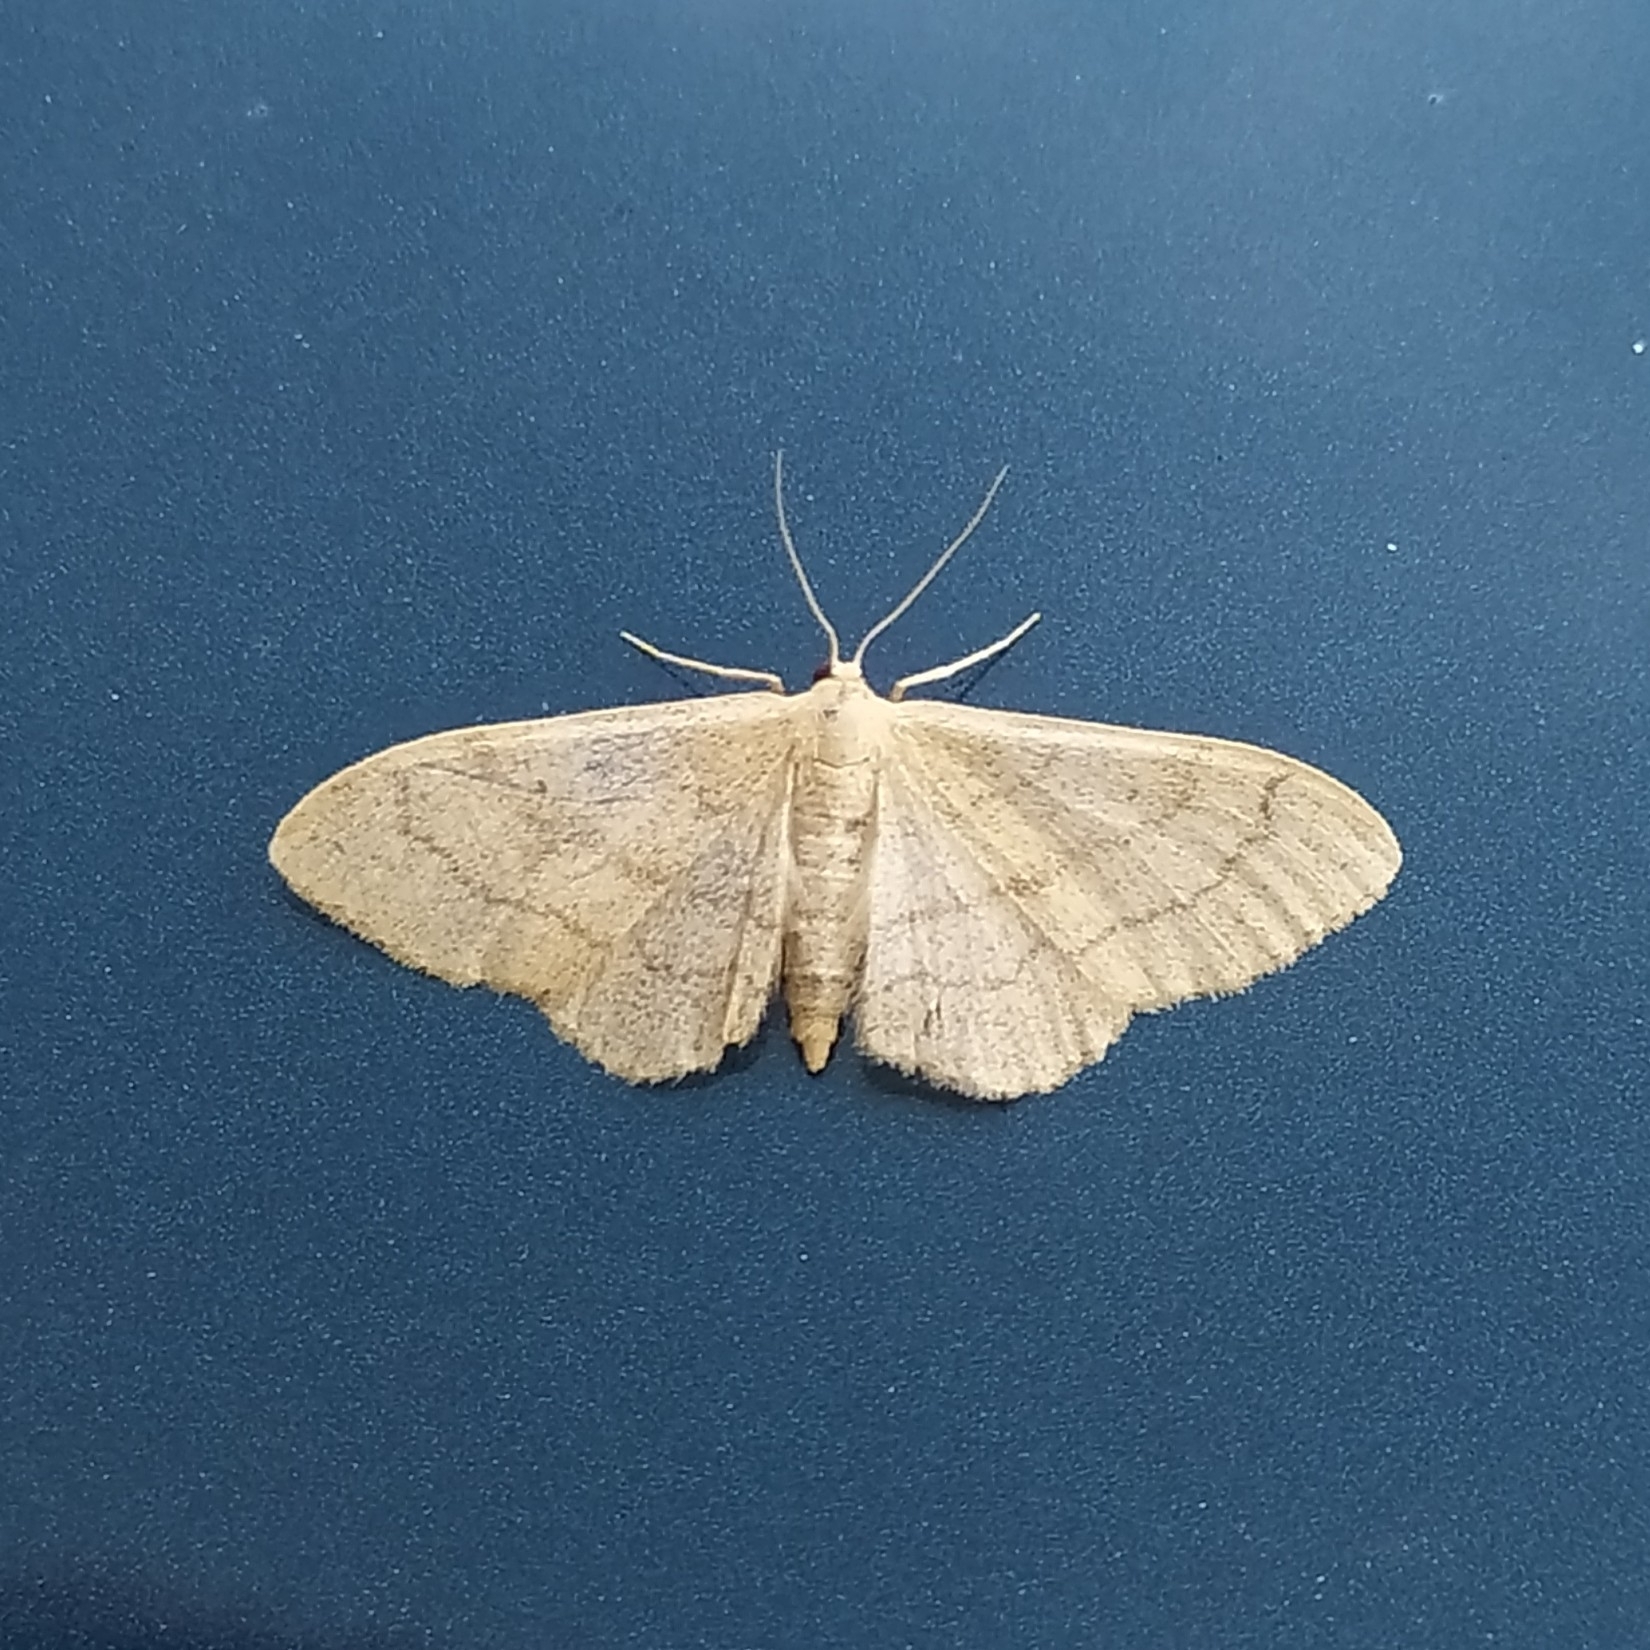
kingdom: Animalia
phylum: Arthropoda
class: Insecta
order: Lepidoptera
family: Geometridae
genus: Idaea
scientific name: Idaea aversata
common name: Riband wave
